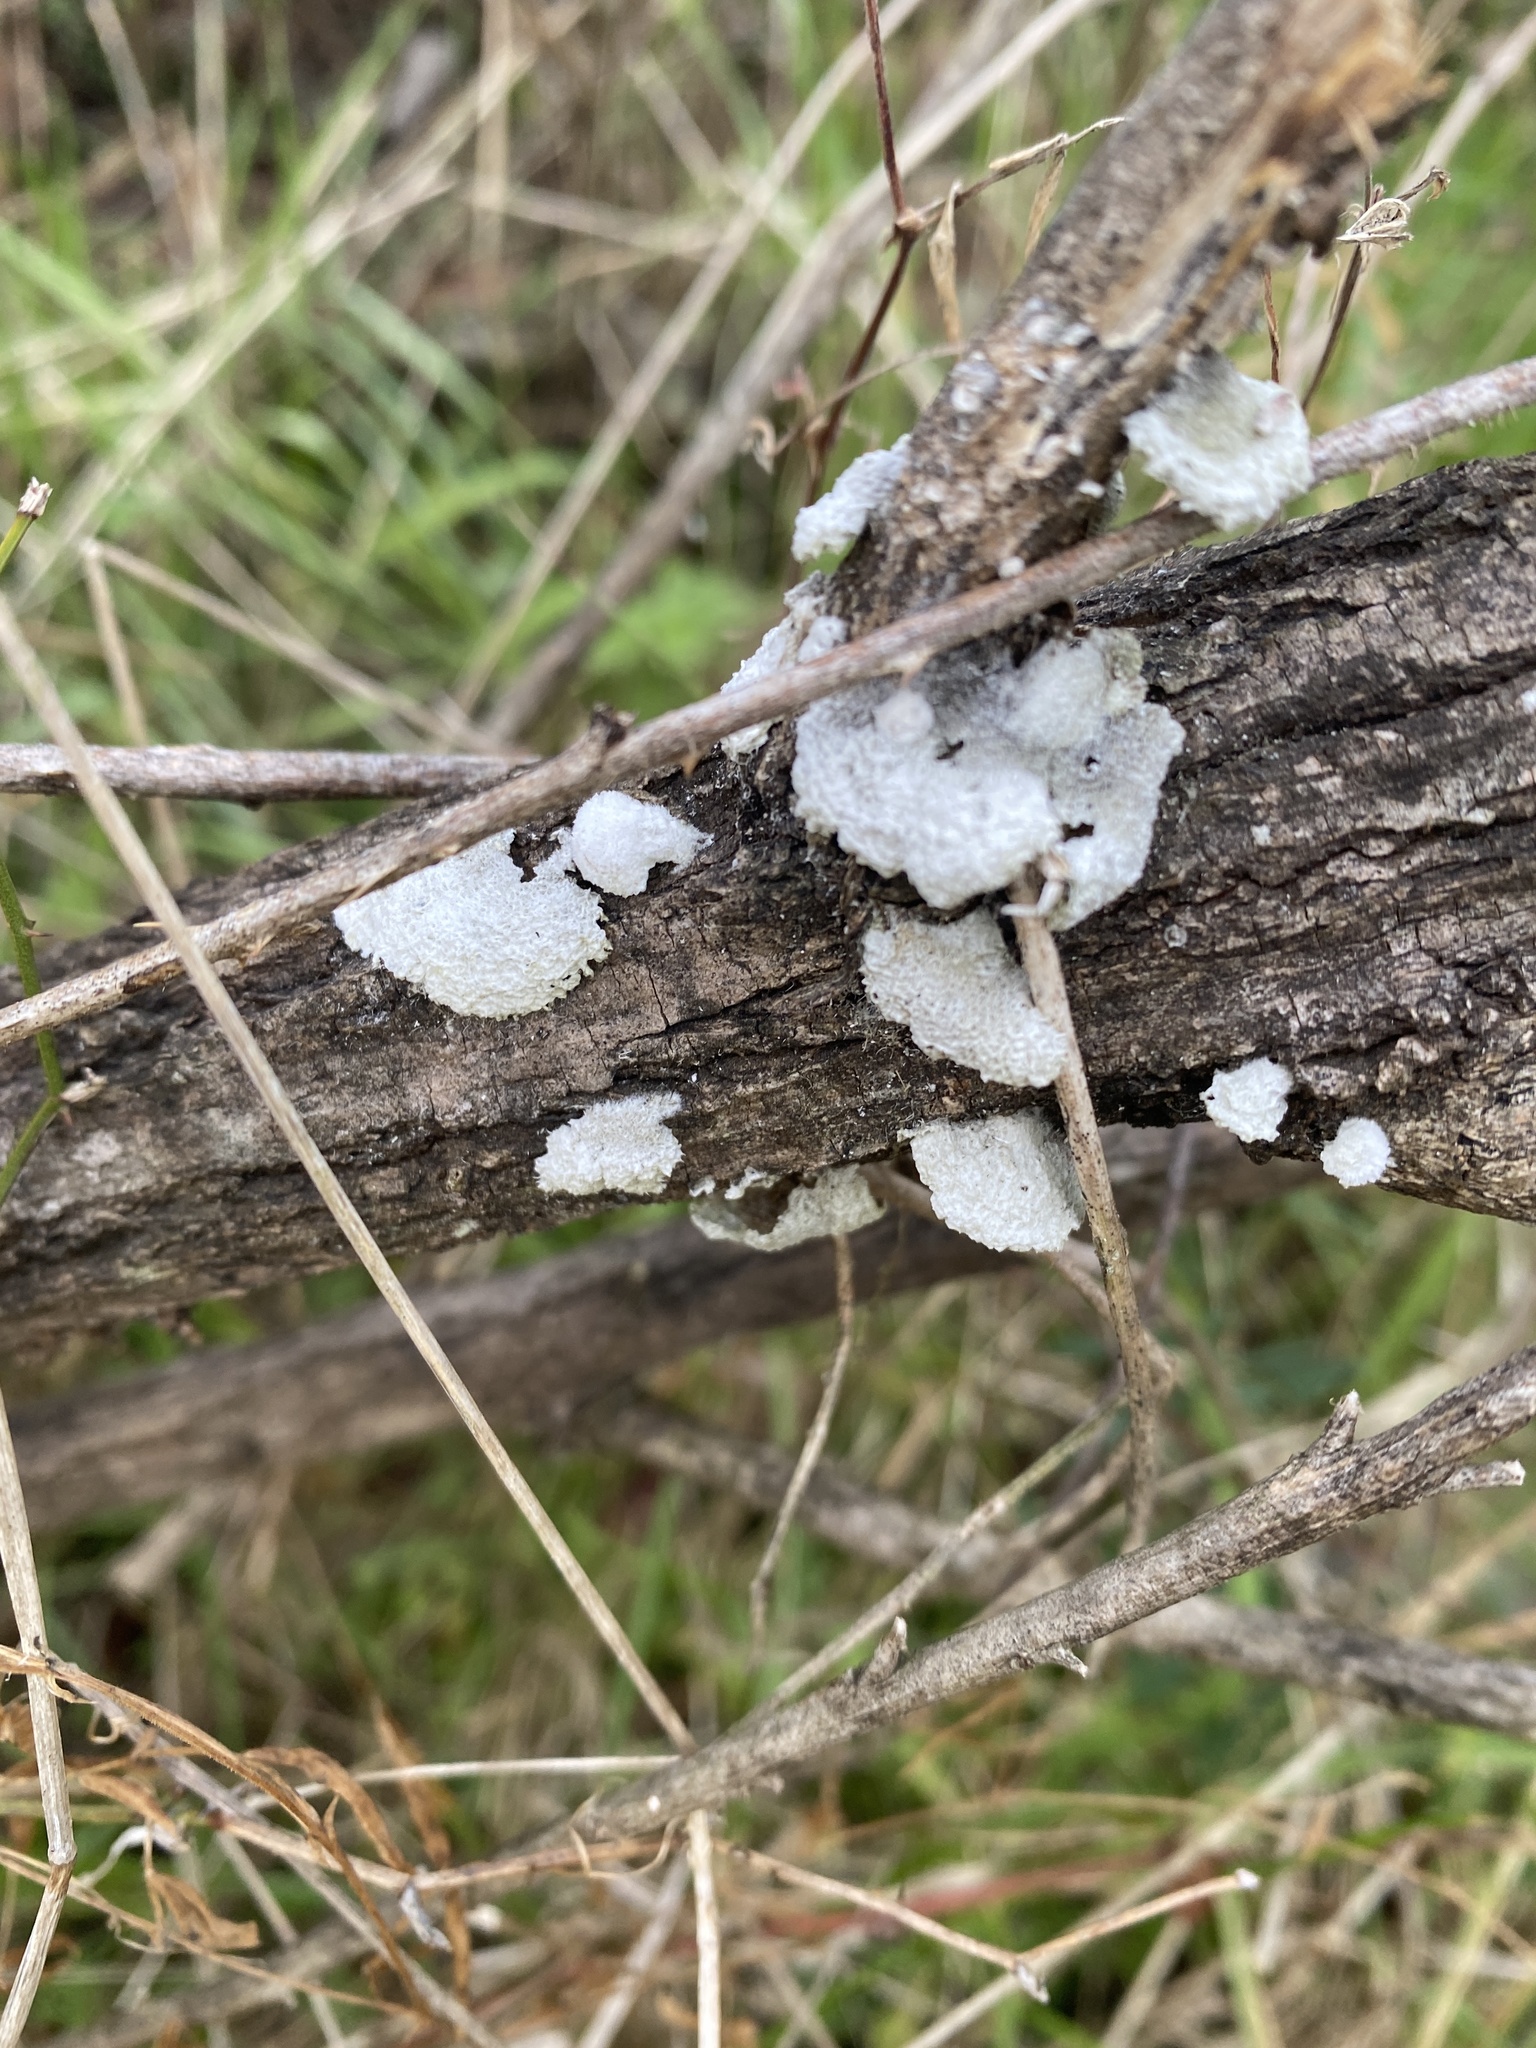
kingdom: Fungi
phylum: Basidiomycota
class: Agaricomycetes
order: Agaricales
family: Schizophyllaceae
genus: Schizophyllum
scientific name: Schizophyllum commune
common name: Common porecrust
